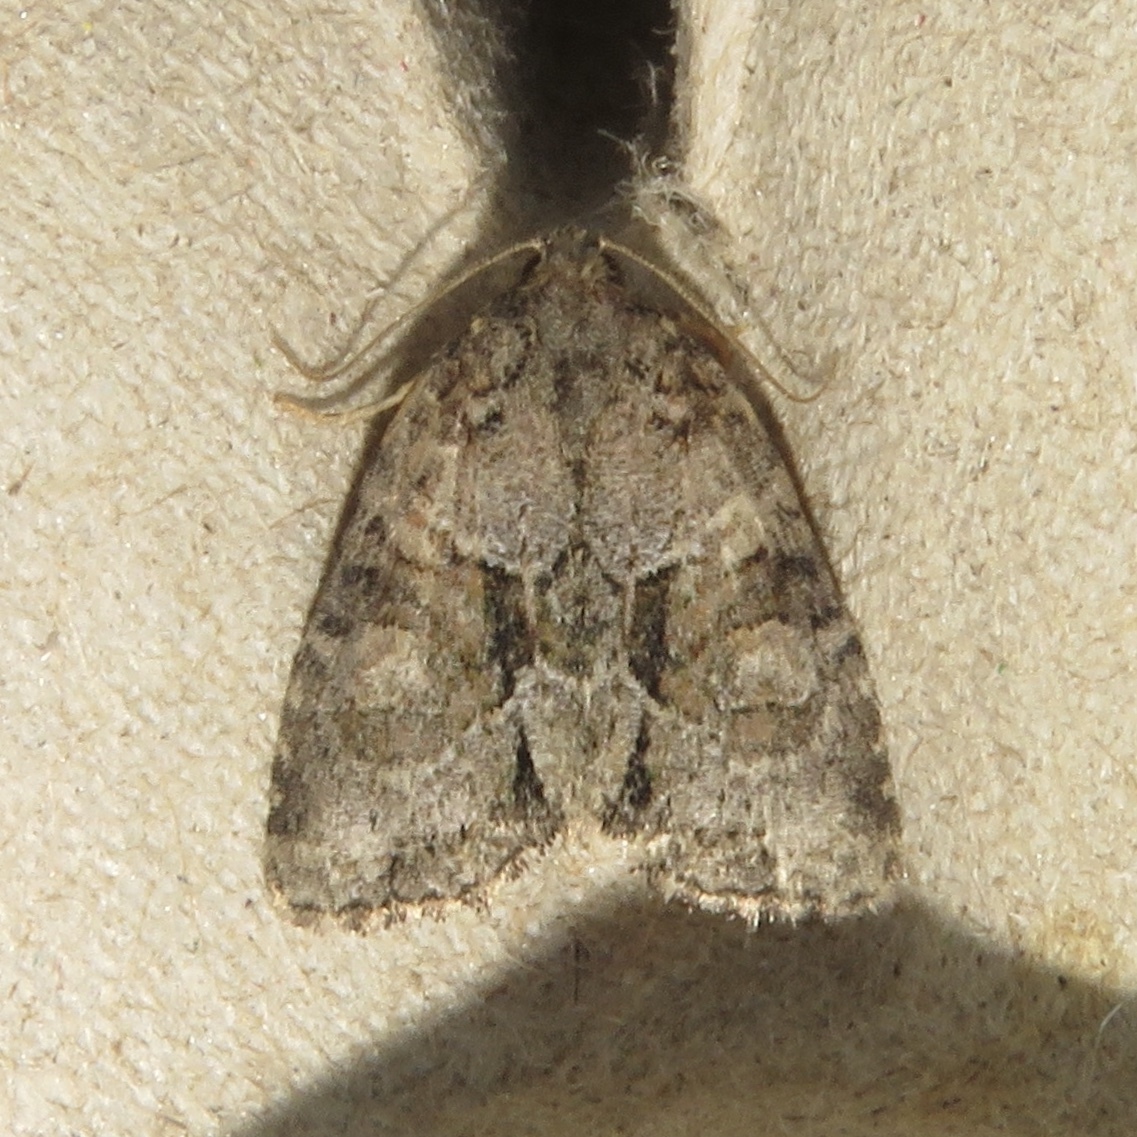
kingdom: Animalia
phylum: Arthropoda
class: Insecta
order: Lepidoptera
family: Noctuidae
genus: Neoligia
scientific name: Neoligia exhausta
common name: Exhausted brocade
